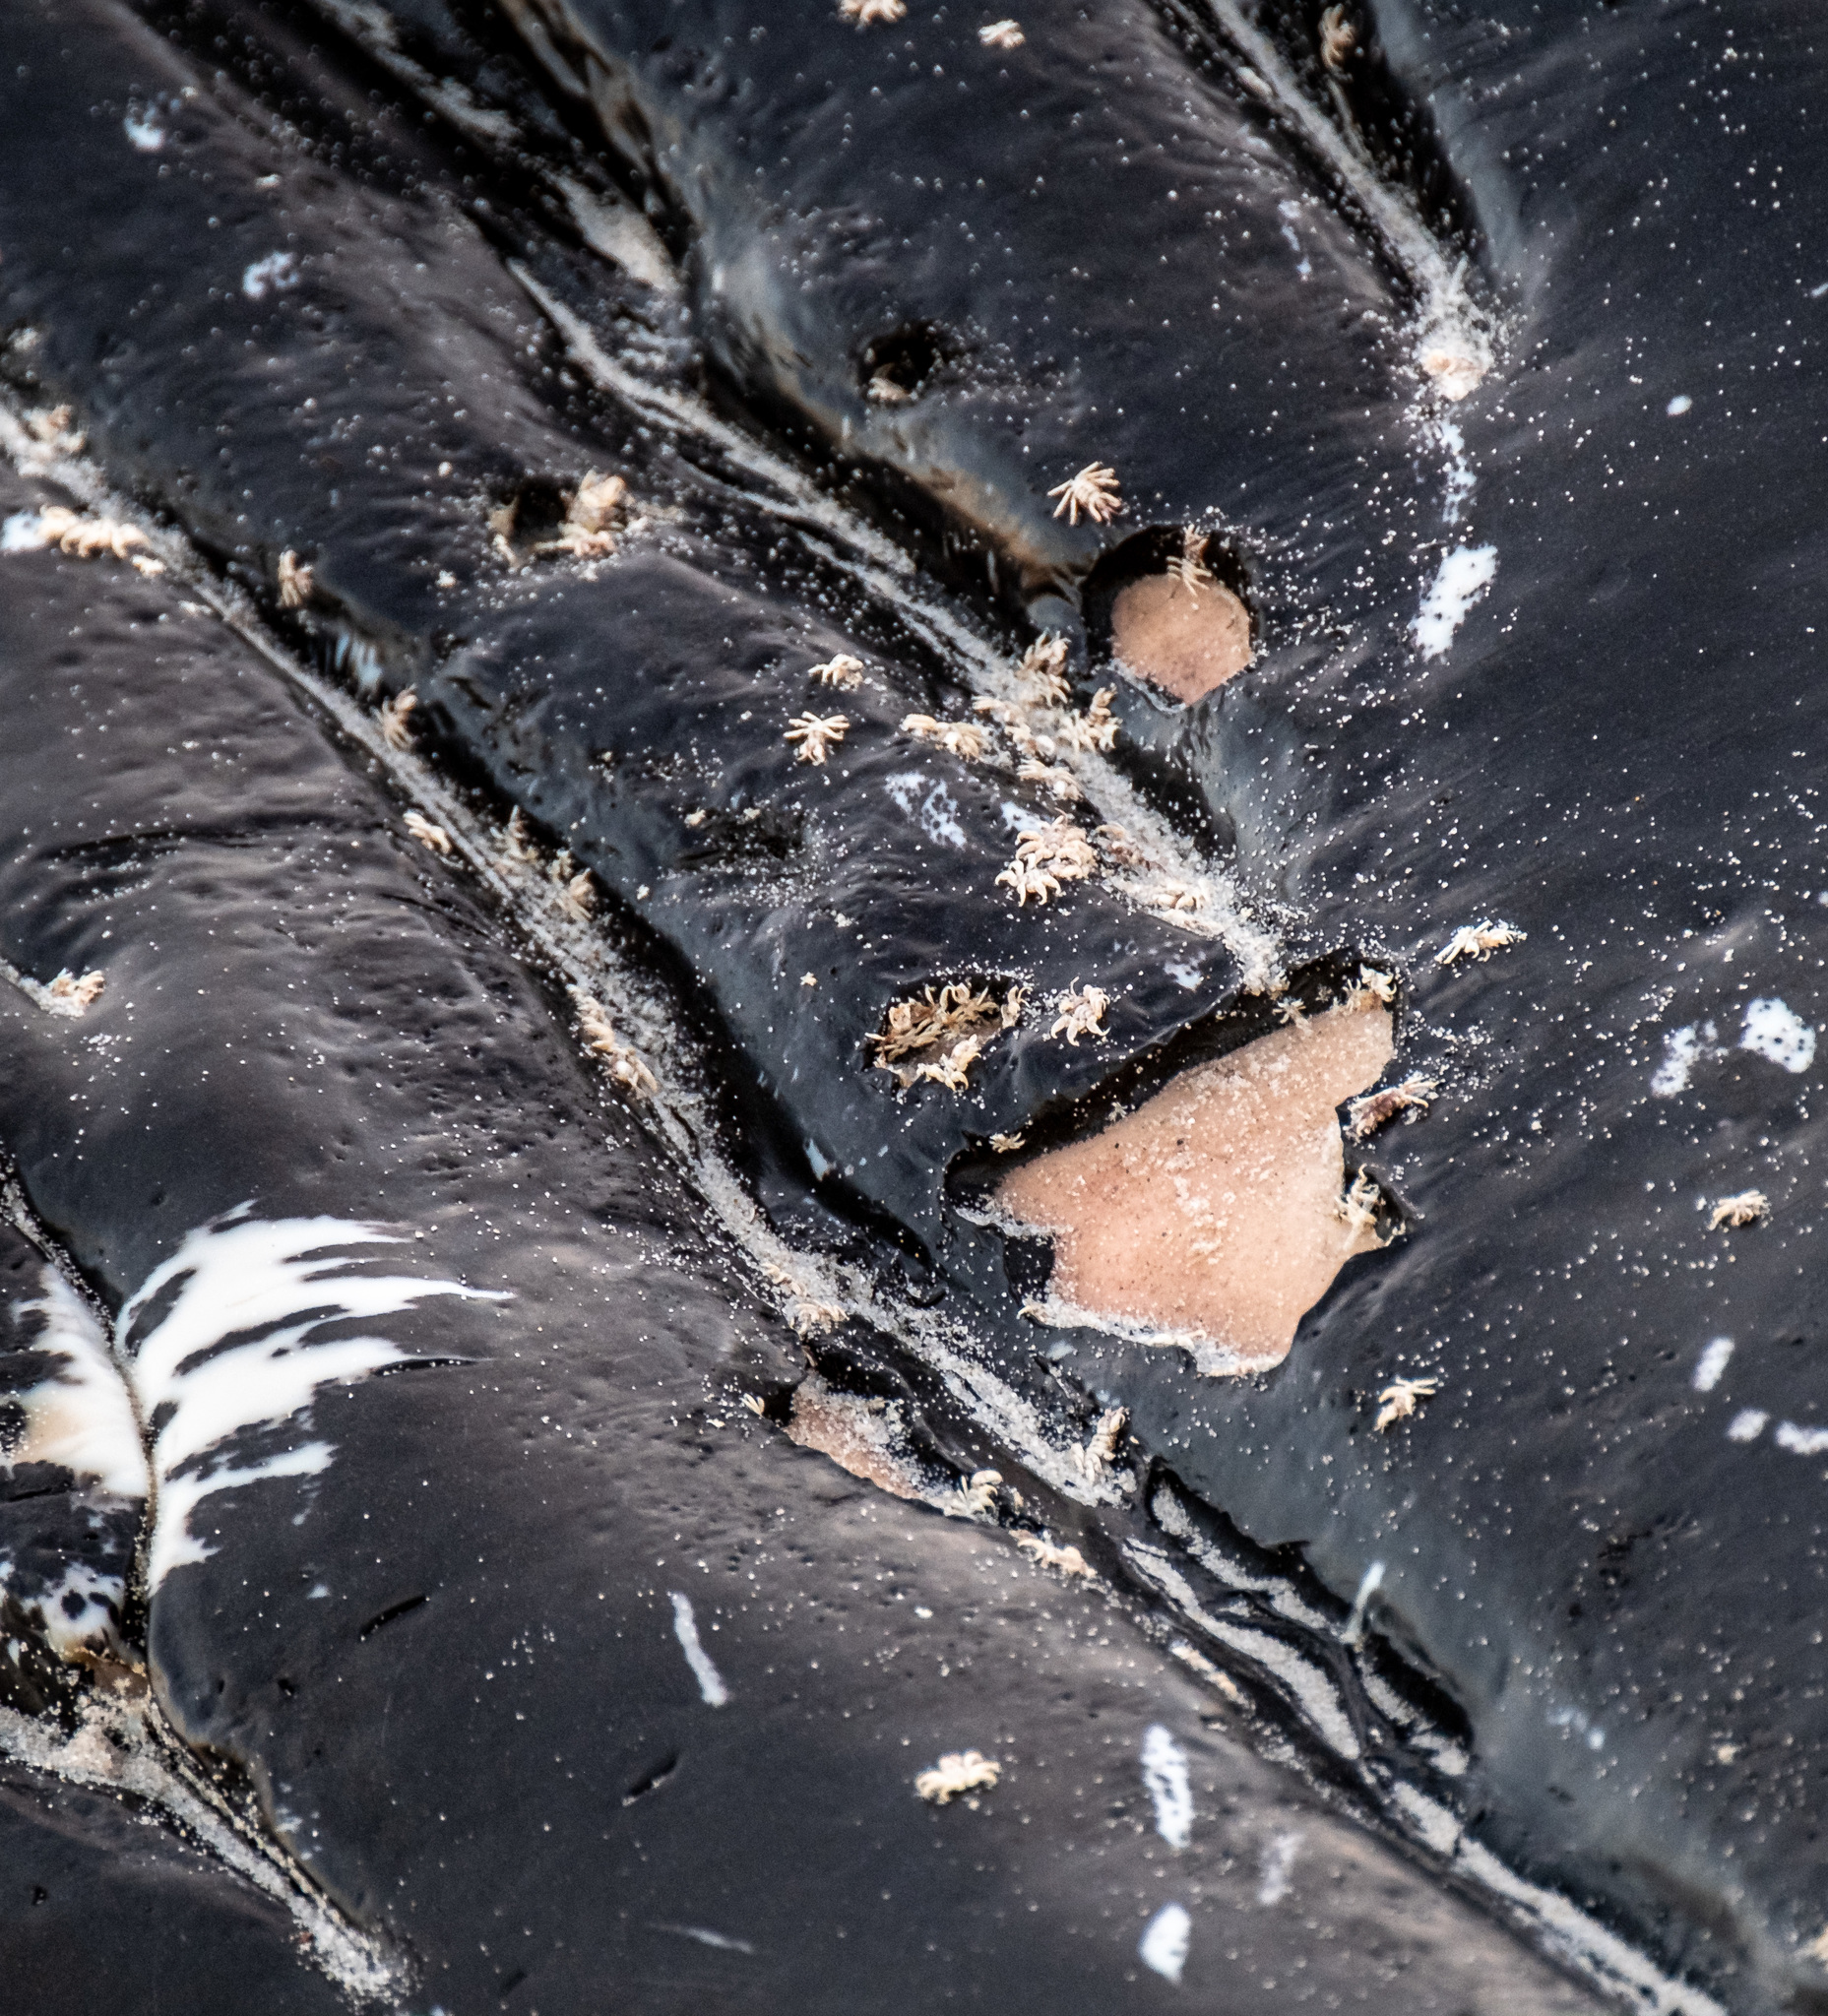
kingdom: Animalia
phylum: Arthropoda
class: Malacostraca
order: Amphipoda
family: Cyamidae
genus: Cyamus
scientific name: Cyamus boopis
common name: Whale-louse
